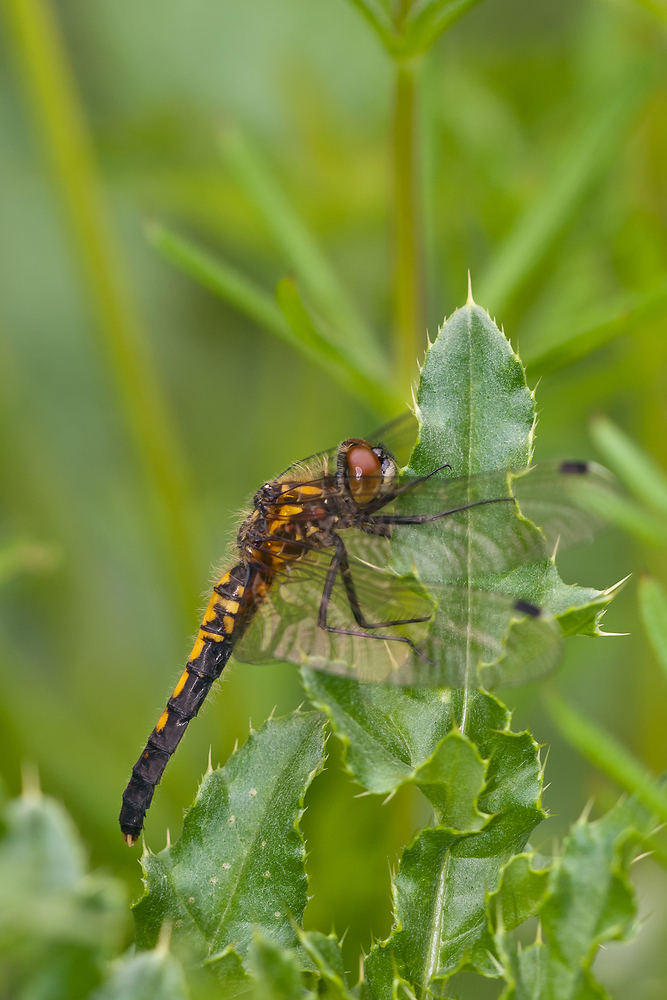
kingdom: Animalia
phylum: Arthropoda
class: Insecta
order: Odonata
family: Libellulidae
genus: Leucorrhinia
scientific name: Leucorrhinia caudalis
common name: Lilypad whiteface
